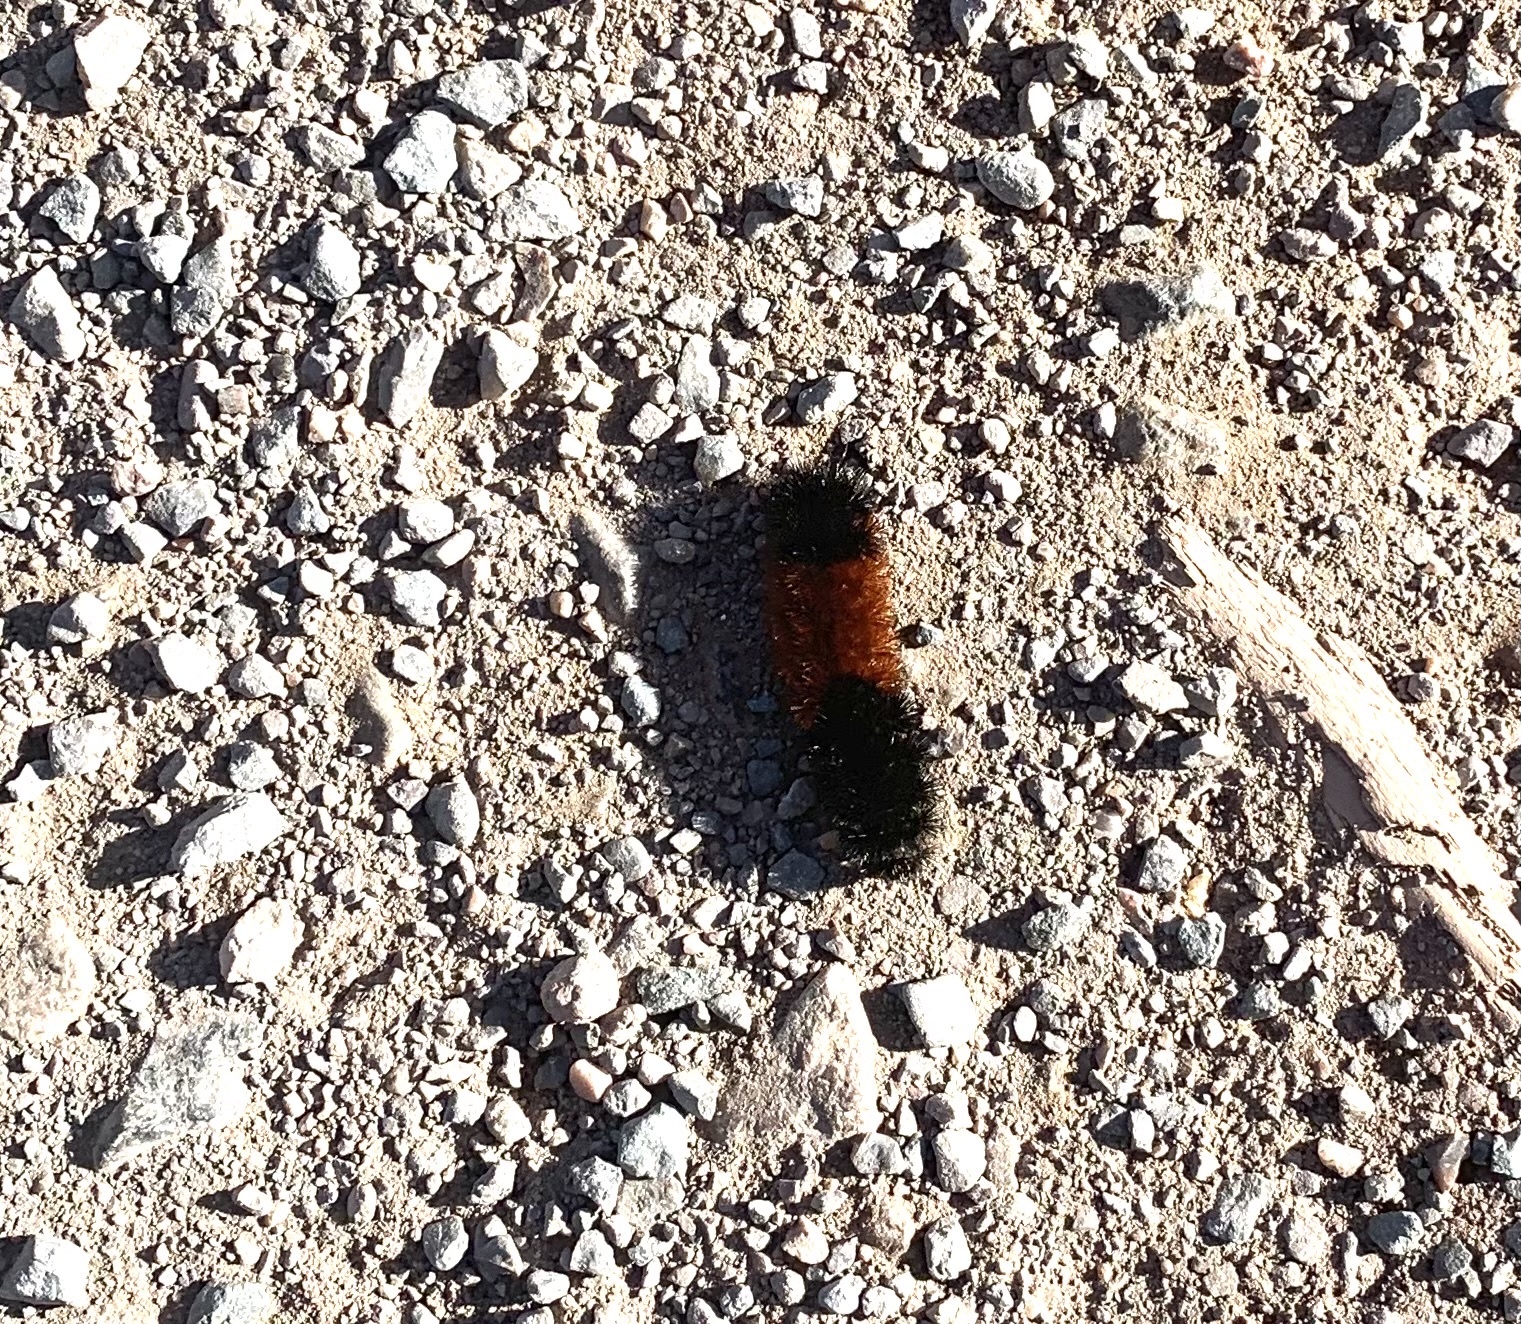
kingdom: Animalia
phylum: Arthropoda
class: Insecta
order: Lepidoptera
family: Erebidae
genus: Pyrrharctia
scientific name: Pyrrharctia isabella
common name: Isabella tiger moth
